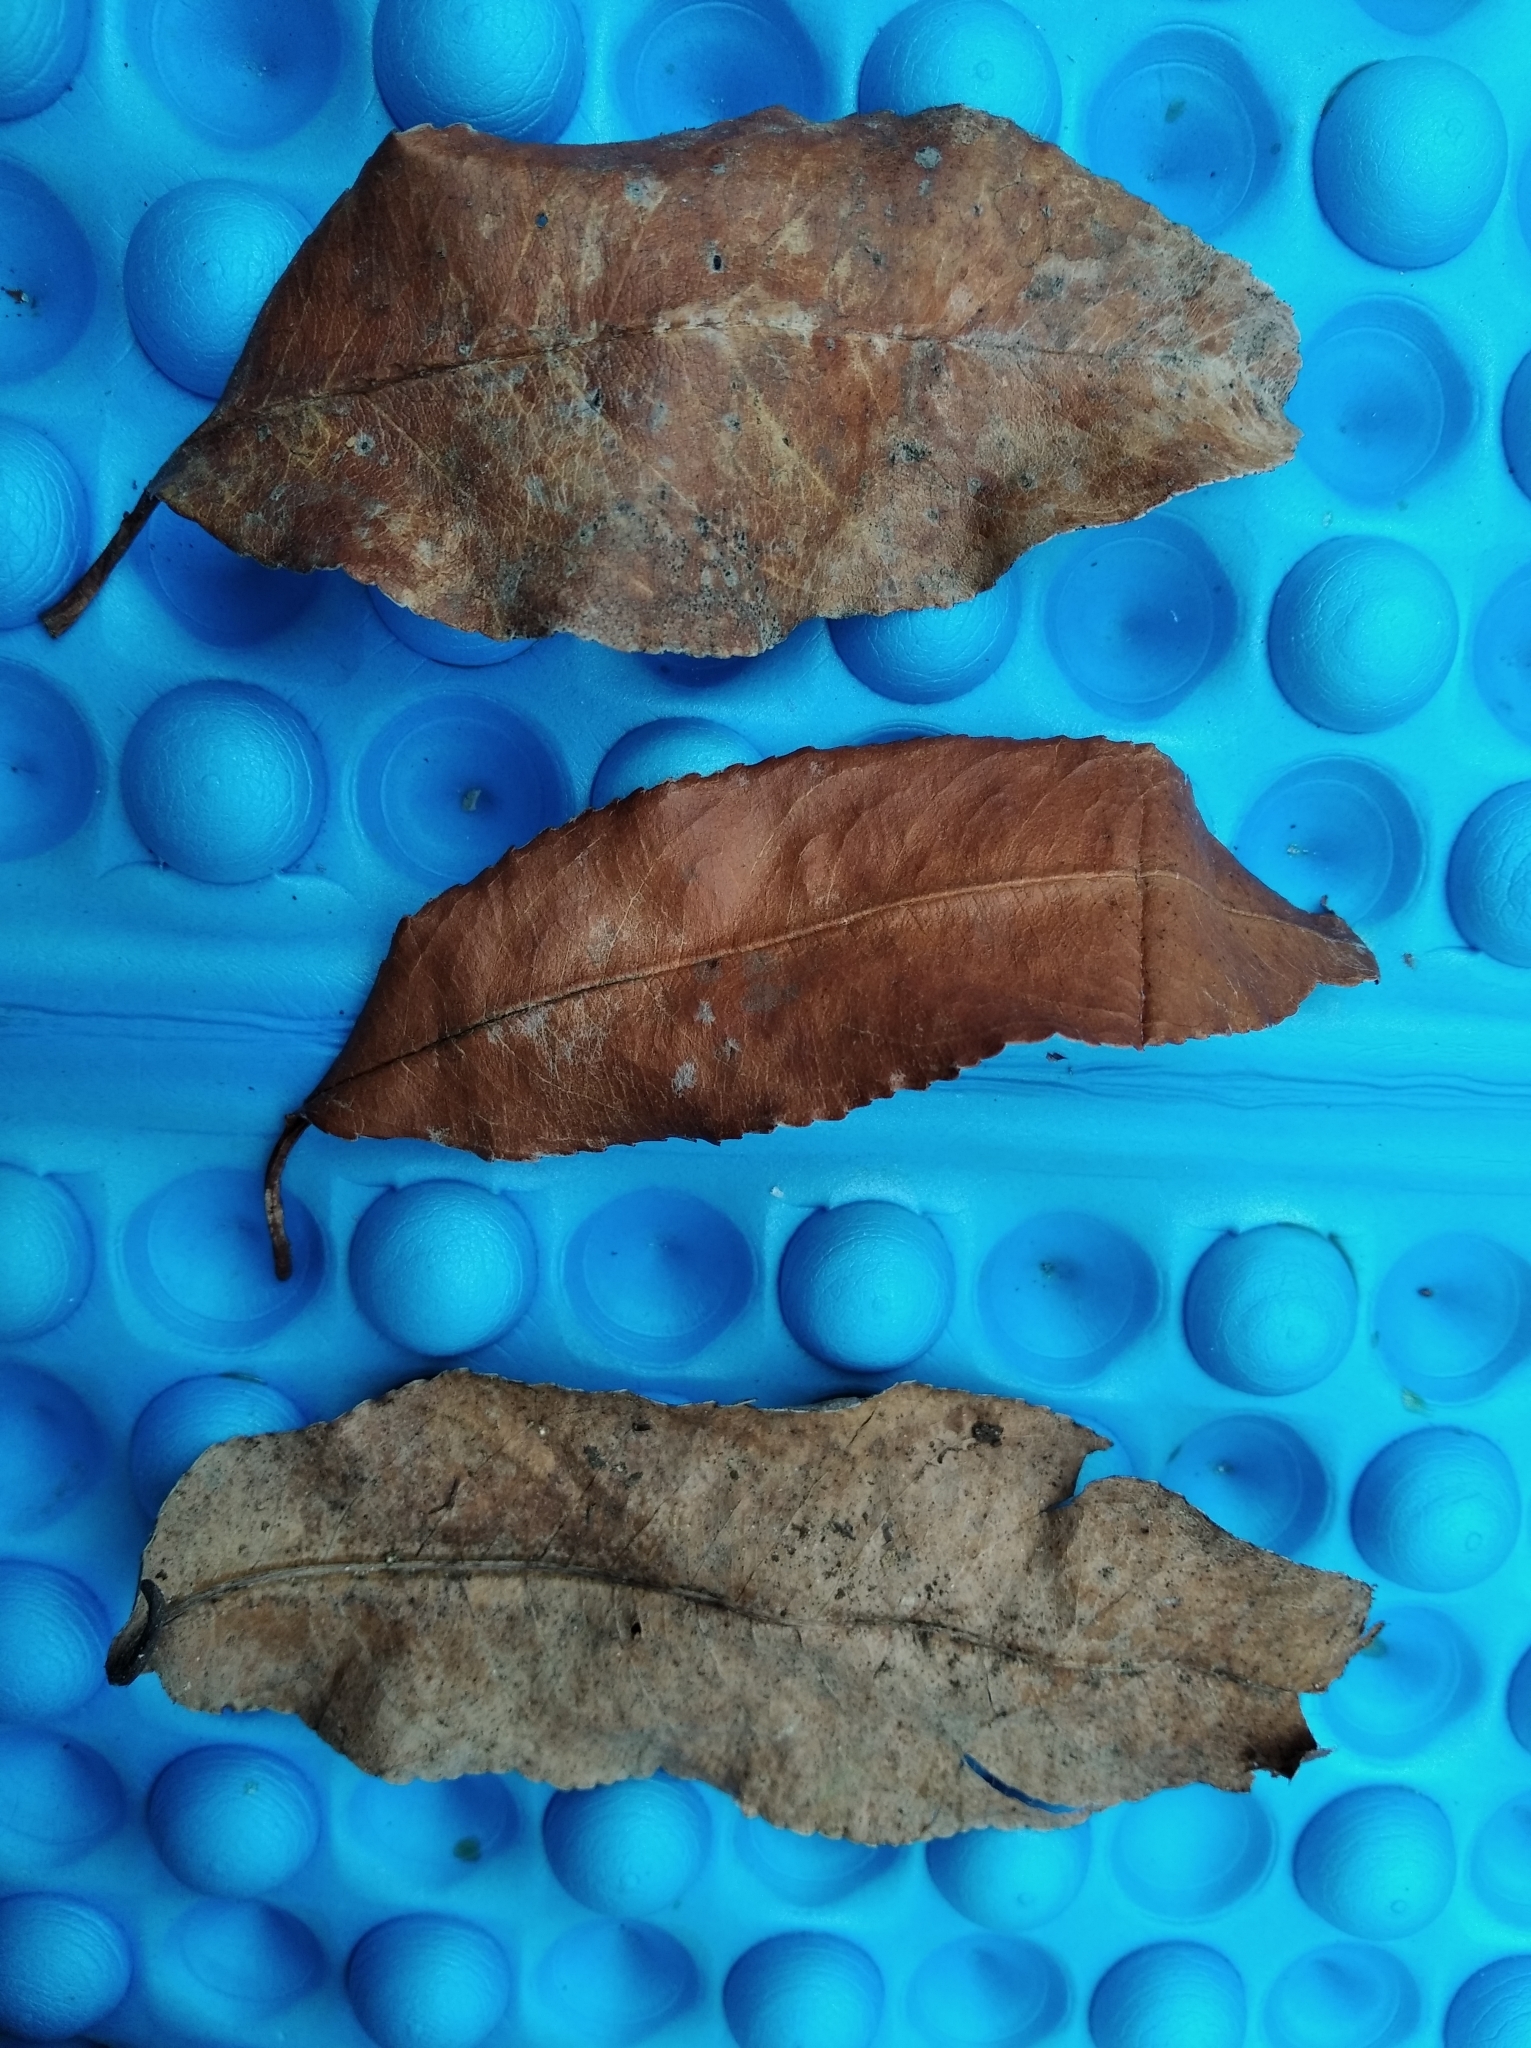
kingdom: Plantae
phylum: Tracheophyta
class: Magnoliopsida
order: Rosales
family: Rosaceae
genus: Prunus
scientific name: Prunus serotina
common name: Black cherry
